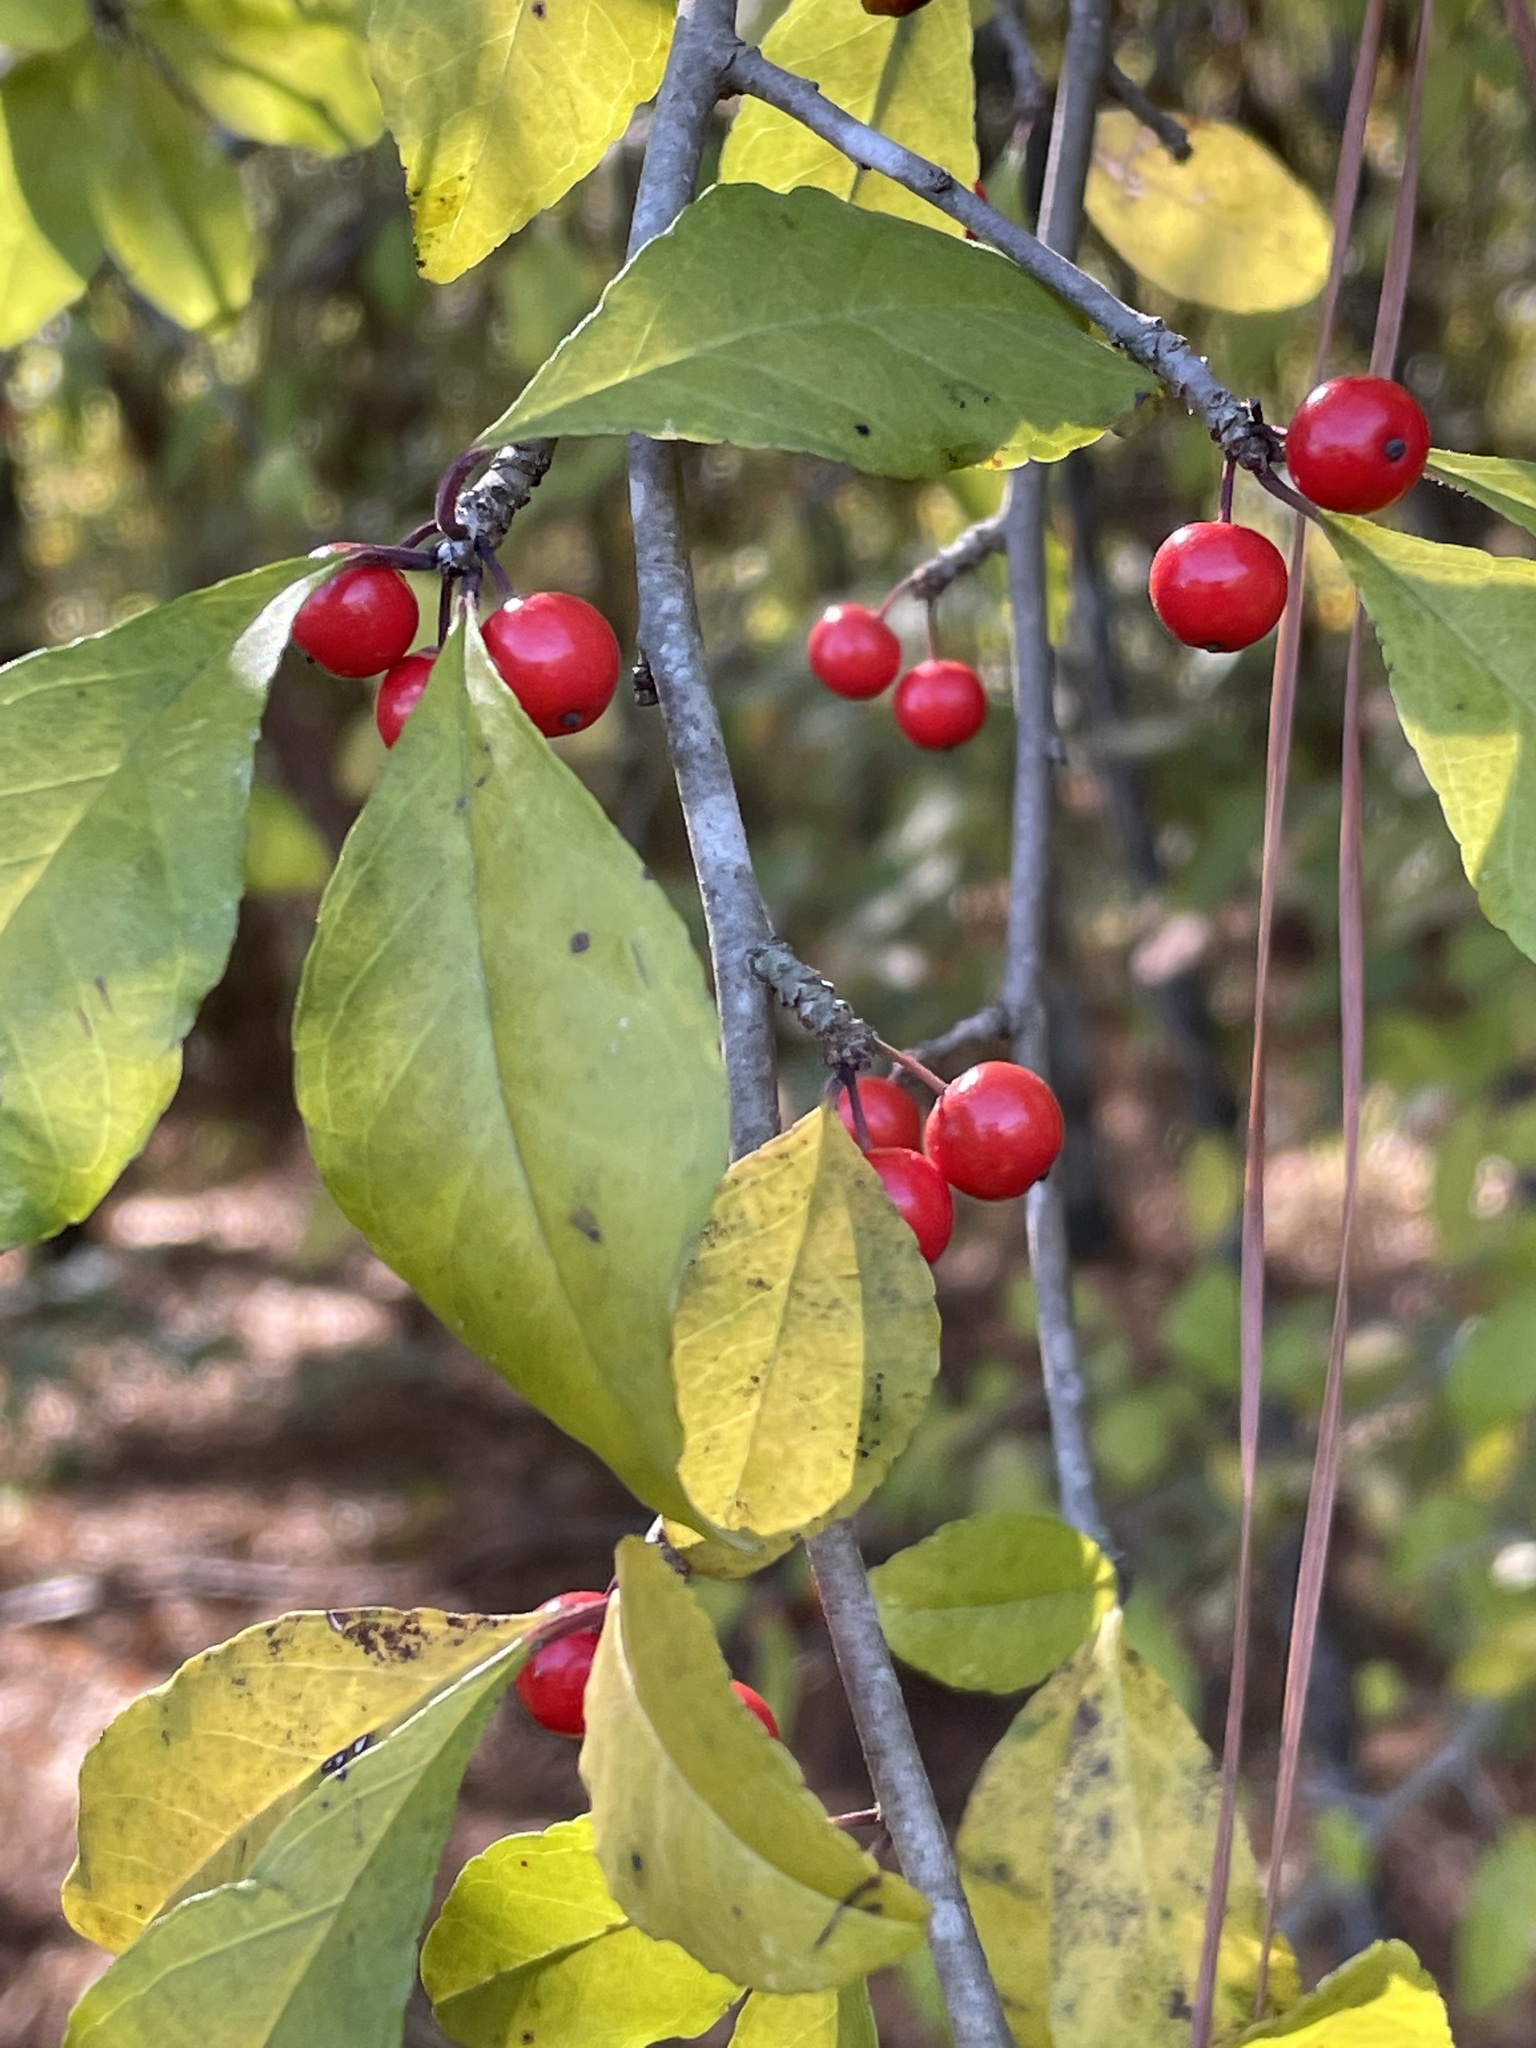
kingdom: Plantae
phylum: Tracheophyta
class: Magnoliopsida
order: Aquifoliales
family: Aquifoliaceae
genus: Ilex
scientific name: Ilex decidua
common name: Possum-haw
